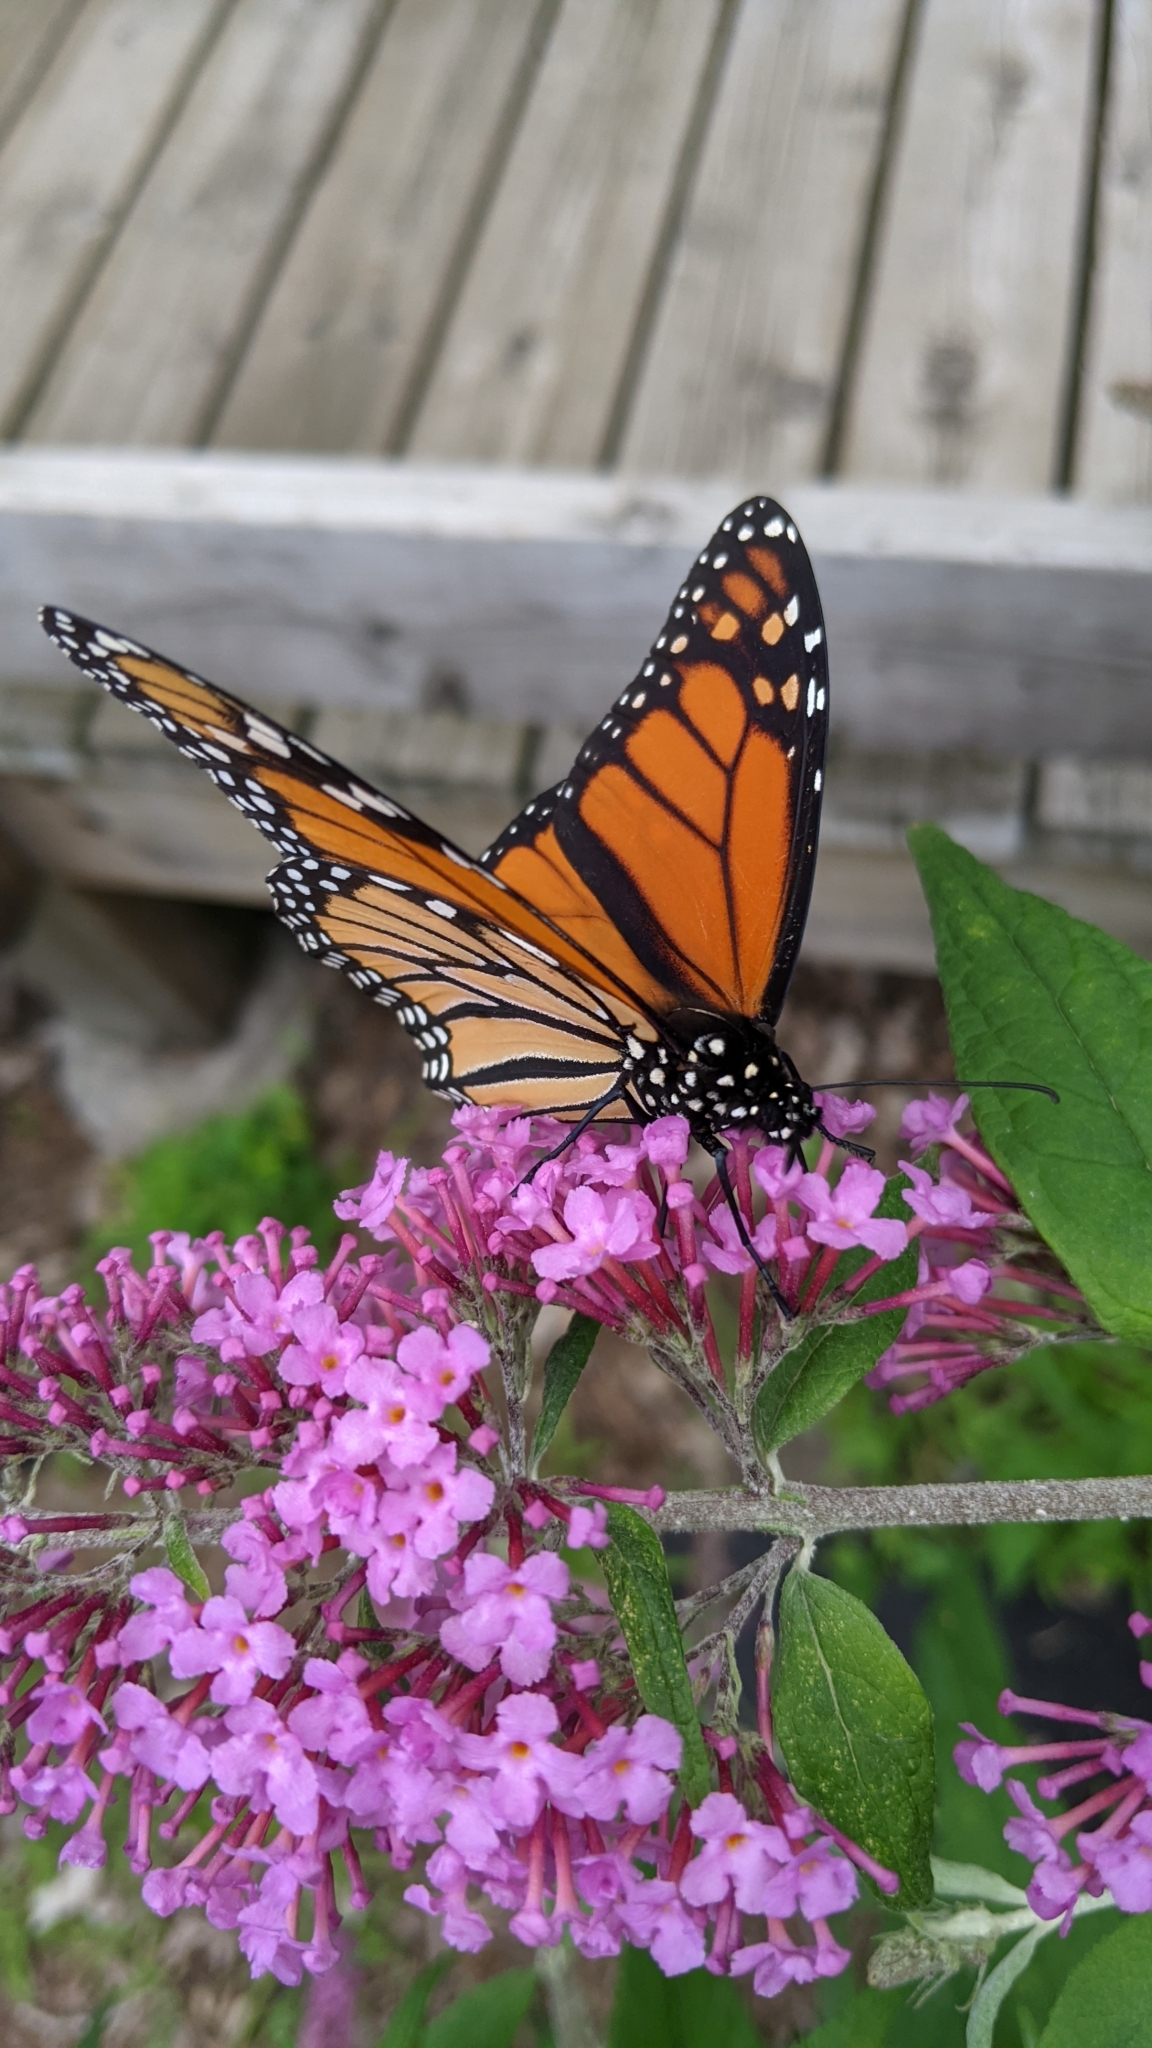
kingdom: Animalia
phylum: Arthropoda
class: Insecta
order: Lepidoptera
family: Nymphalidae
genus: Danaus
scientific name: Danaus plexippus
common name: Monarch
